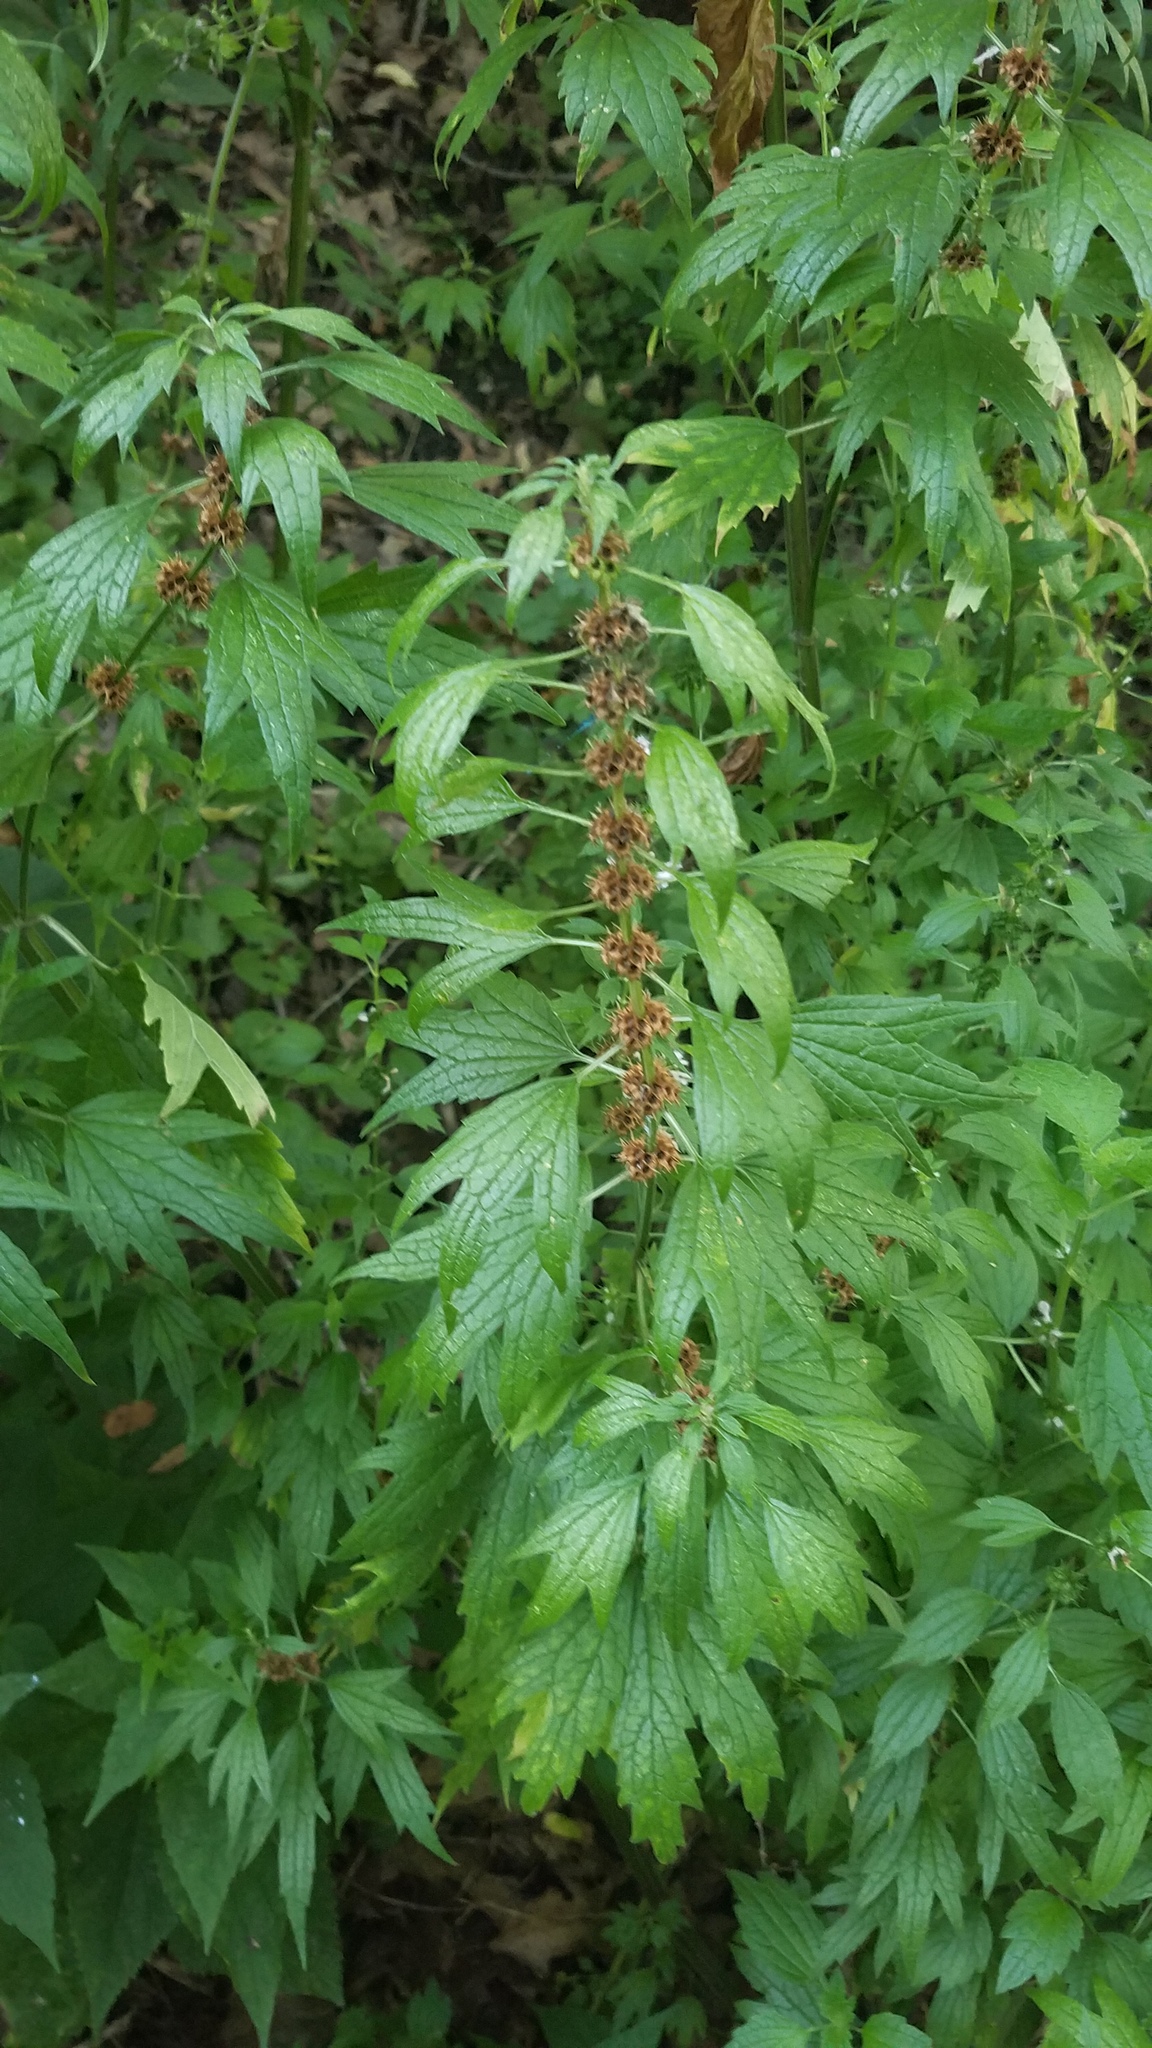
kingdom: Plantae
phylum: Tracheophyta
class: Magnoliopsida
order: Lamiales
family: Lamiaceae
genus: Leonurus
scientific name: Leonurus cardiaca
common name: Motherwort
